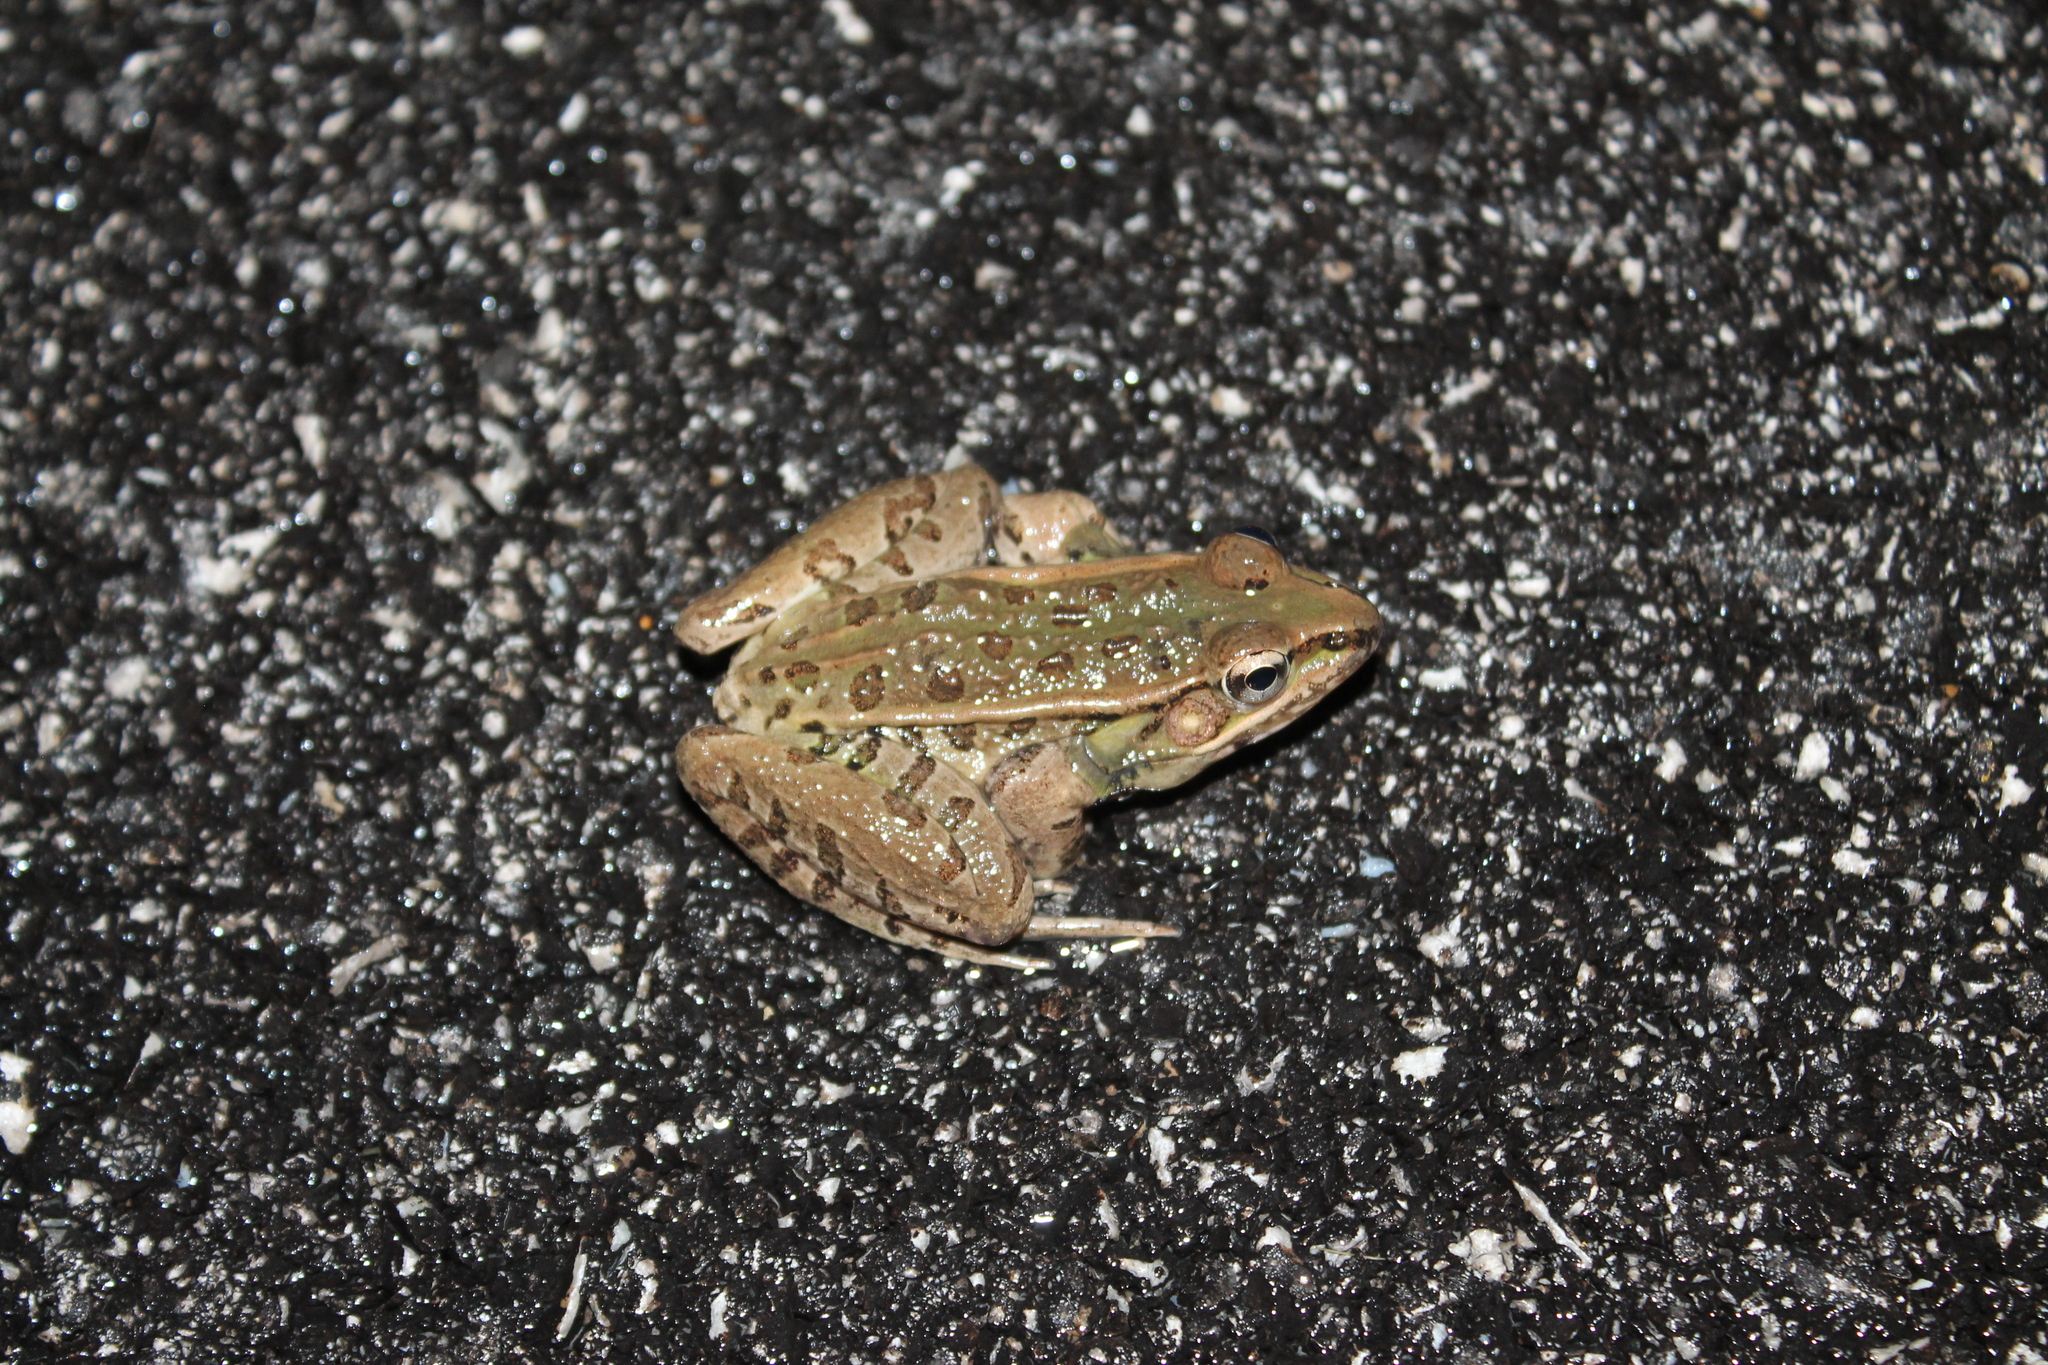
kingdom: Animalia
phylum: Chordata
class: Amphibia
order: Anura
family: Ranidae
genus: Lithobates
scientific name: Lithobates sphenocephalus
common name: Southern leopard frog
